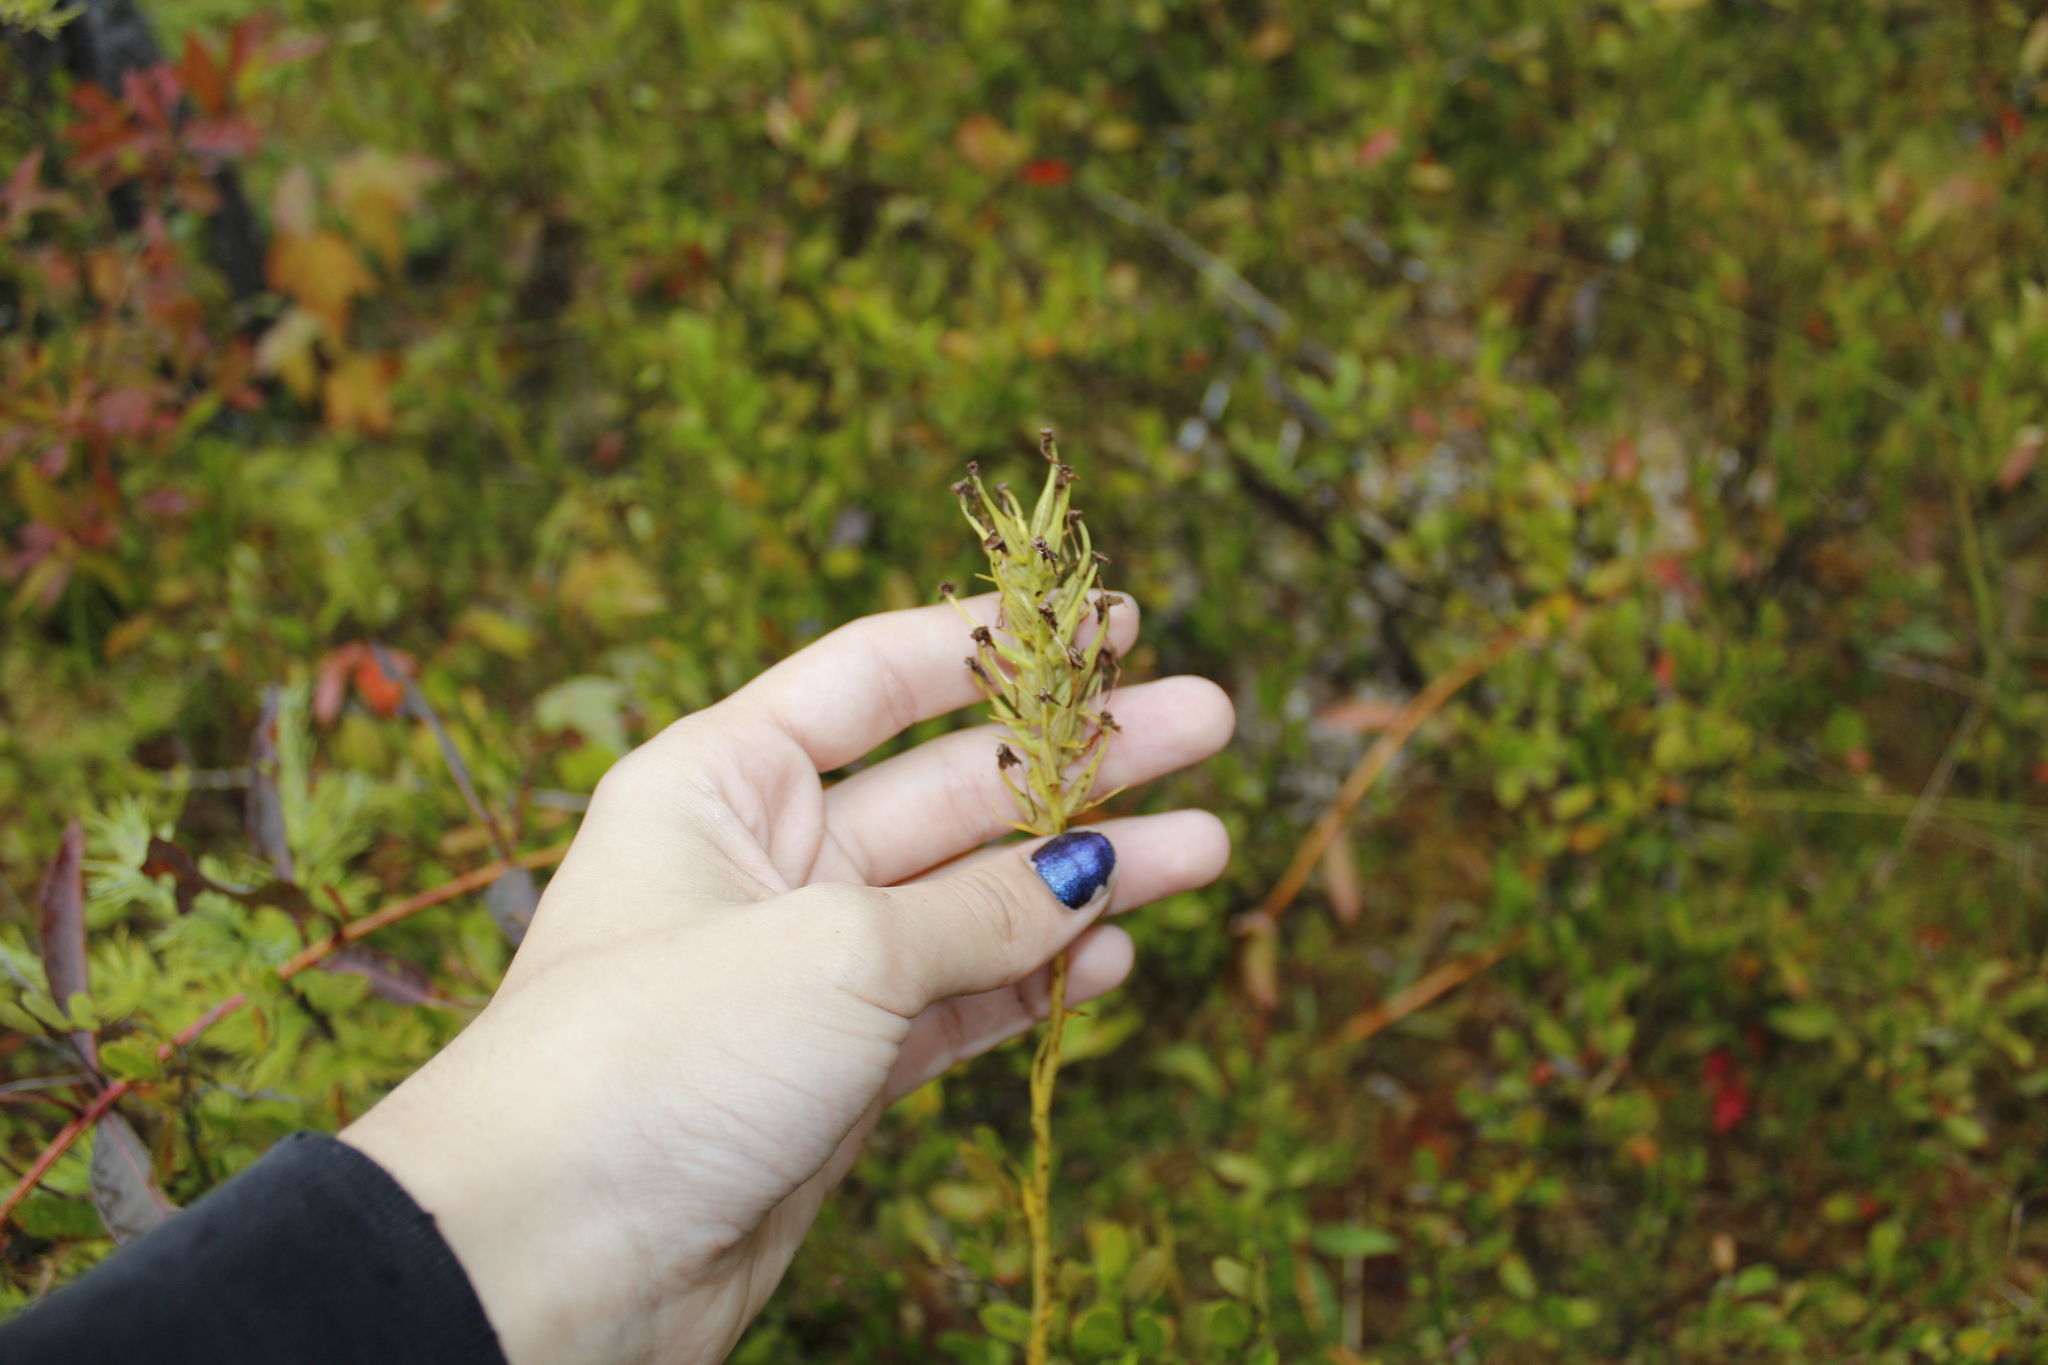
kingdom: Plantae
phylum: Tracheophyta
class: Liliopsida
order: Asparagales
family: Orchidaceae
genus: Platanthera
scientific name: Platanthera blephariglottis
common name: White fringed orchid
